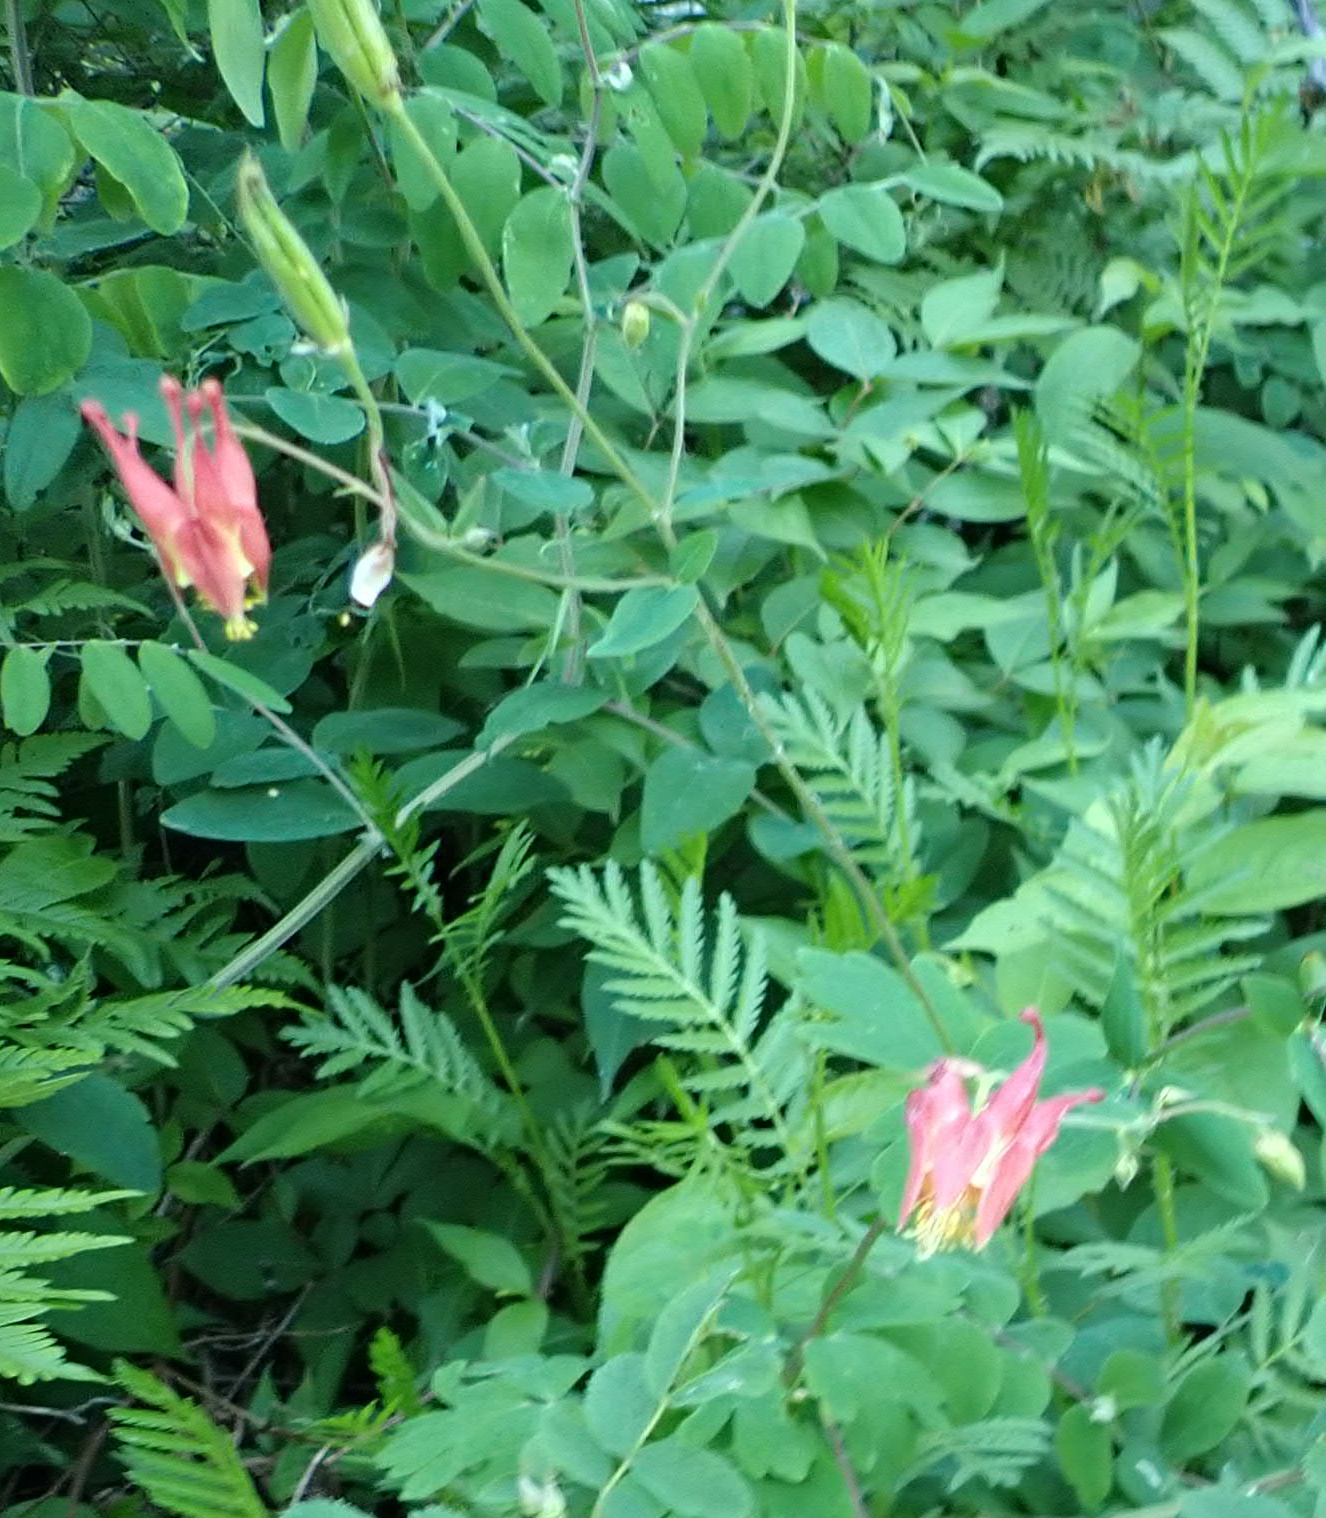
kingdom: Plantae
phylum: Tracheophyta
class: Magnoliopsida
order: Ranunculales
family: Ranunculaceae
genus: Aquilegia
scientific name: Aquilegia canadensis
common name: American columbine
